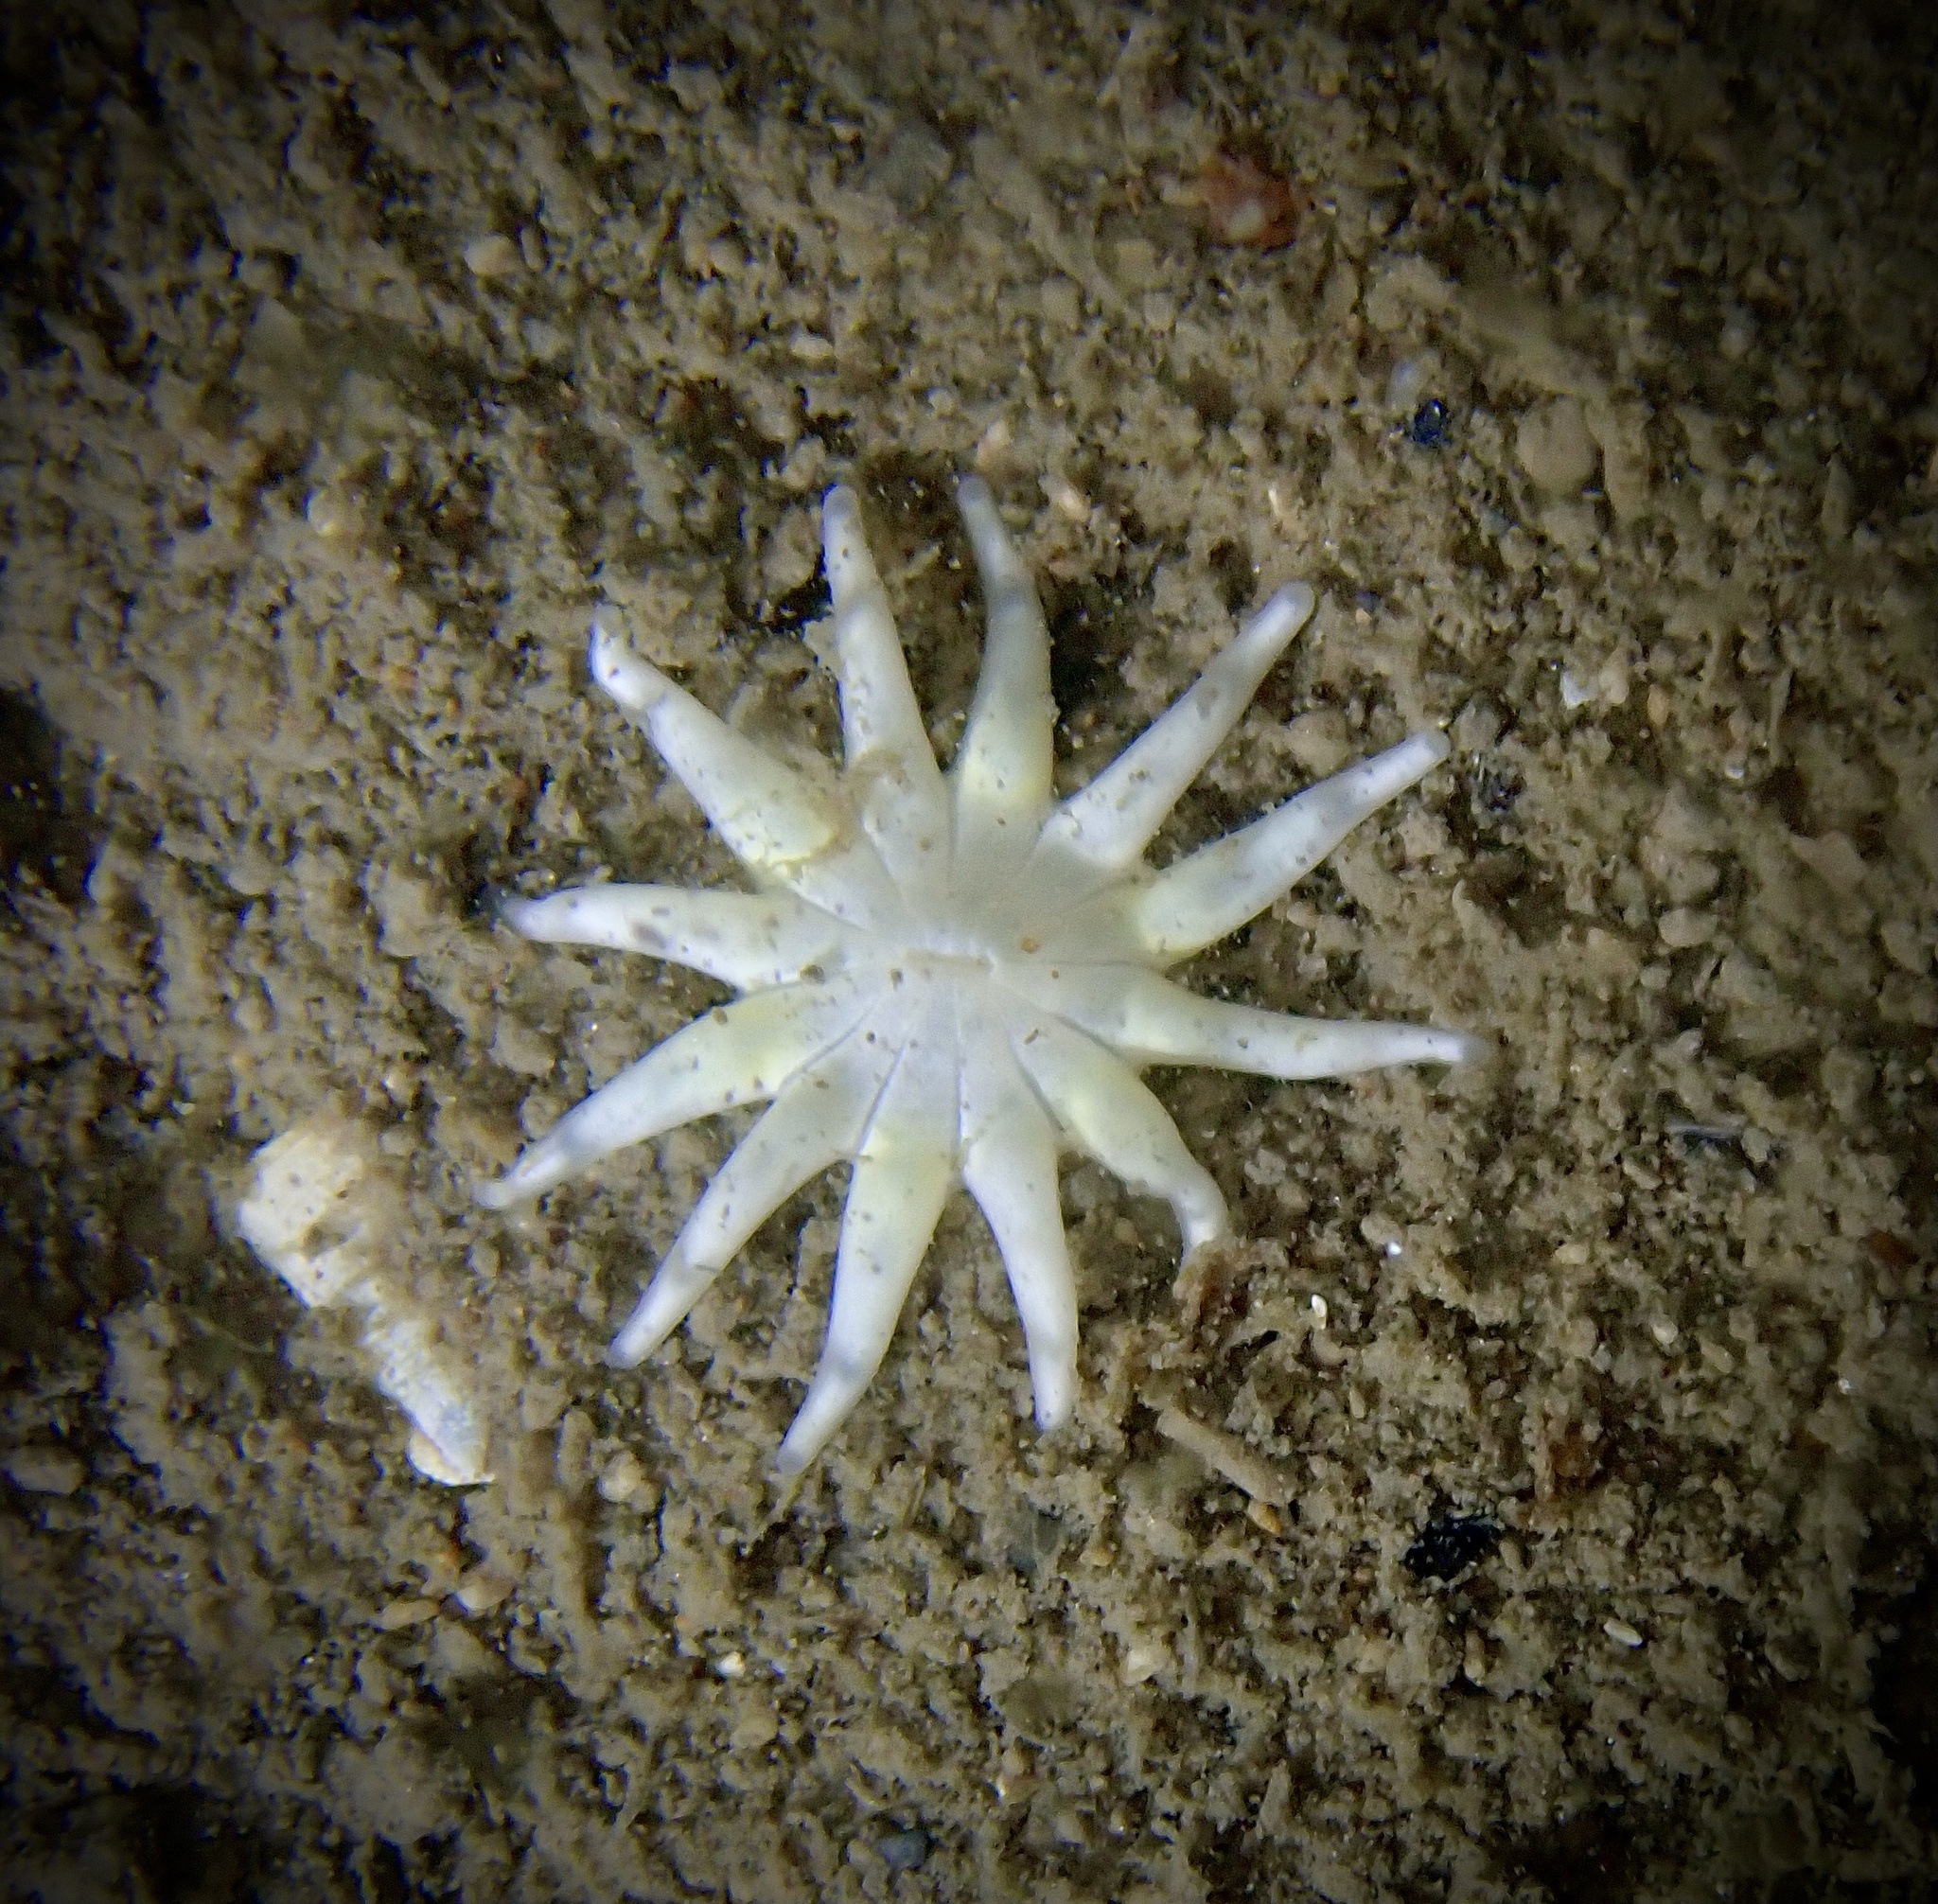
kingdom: Animalia
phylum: Cnidaria
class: Anthozoa
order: Actiniaria
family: Halcampidae
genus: Halcampa
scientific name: Halcampa chrysanthellum
